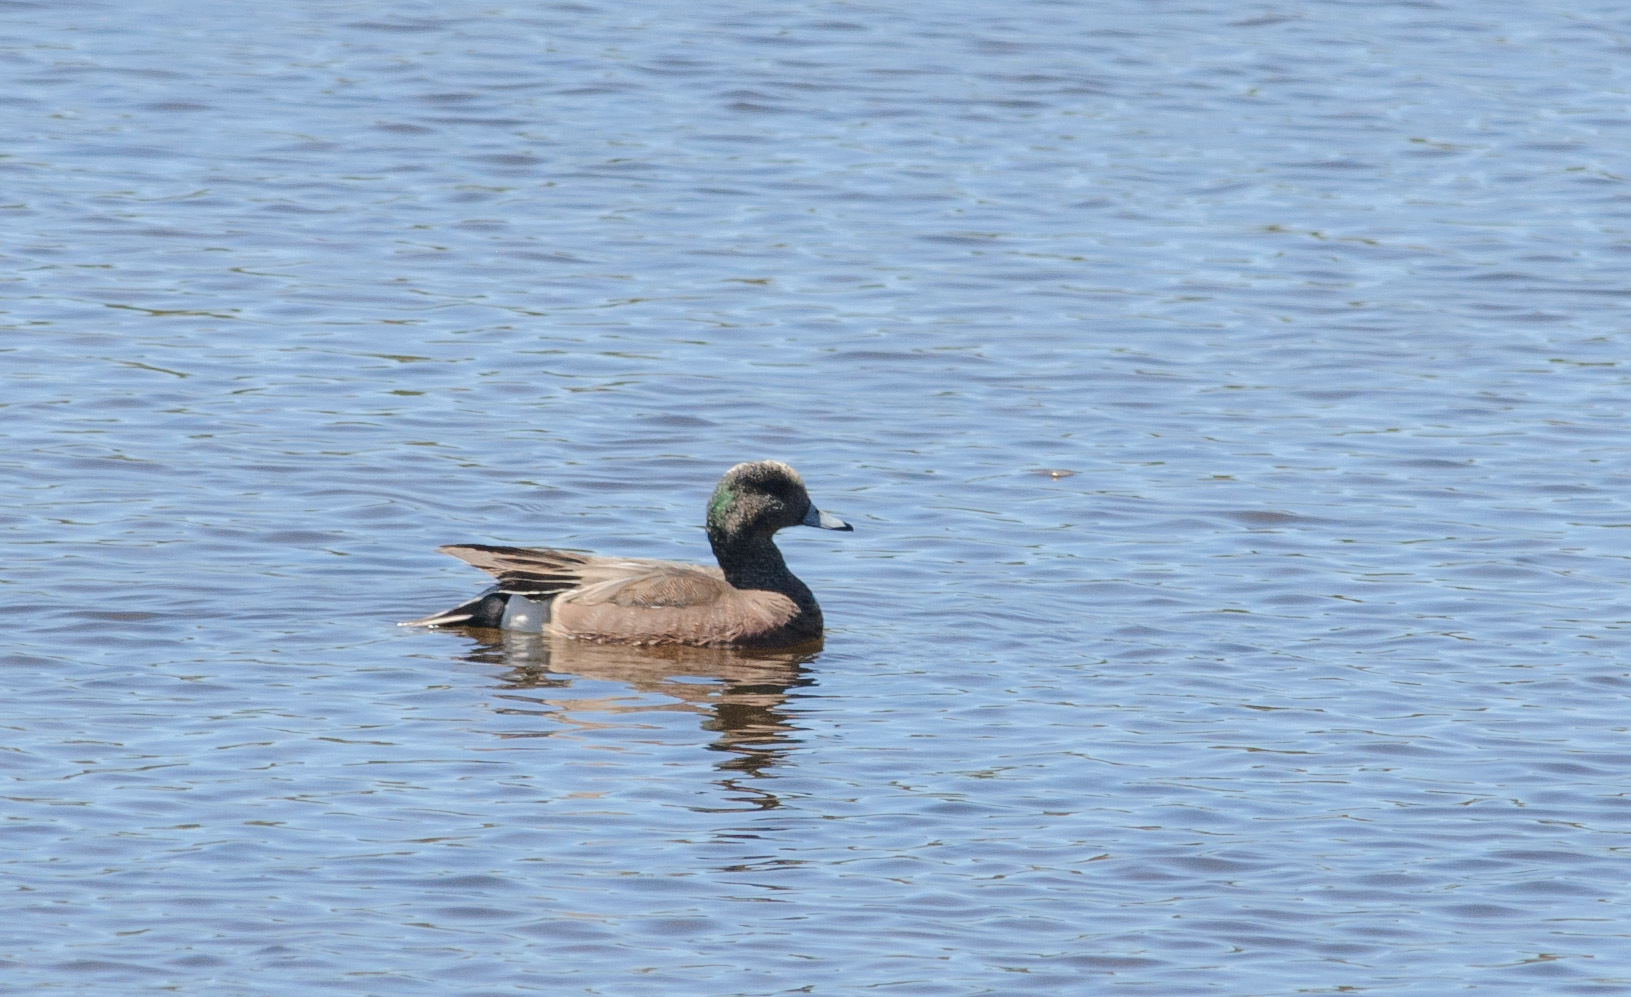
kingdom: Animalia
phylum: Chordata
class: Aves
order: Anseriformes
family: Anatidae
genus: Mareca
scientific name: Mareca americana
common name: American wigeon
